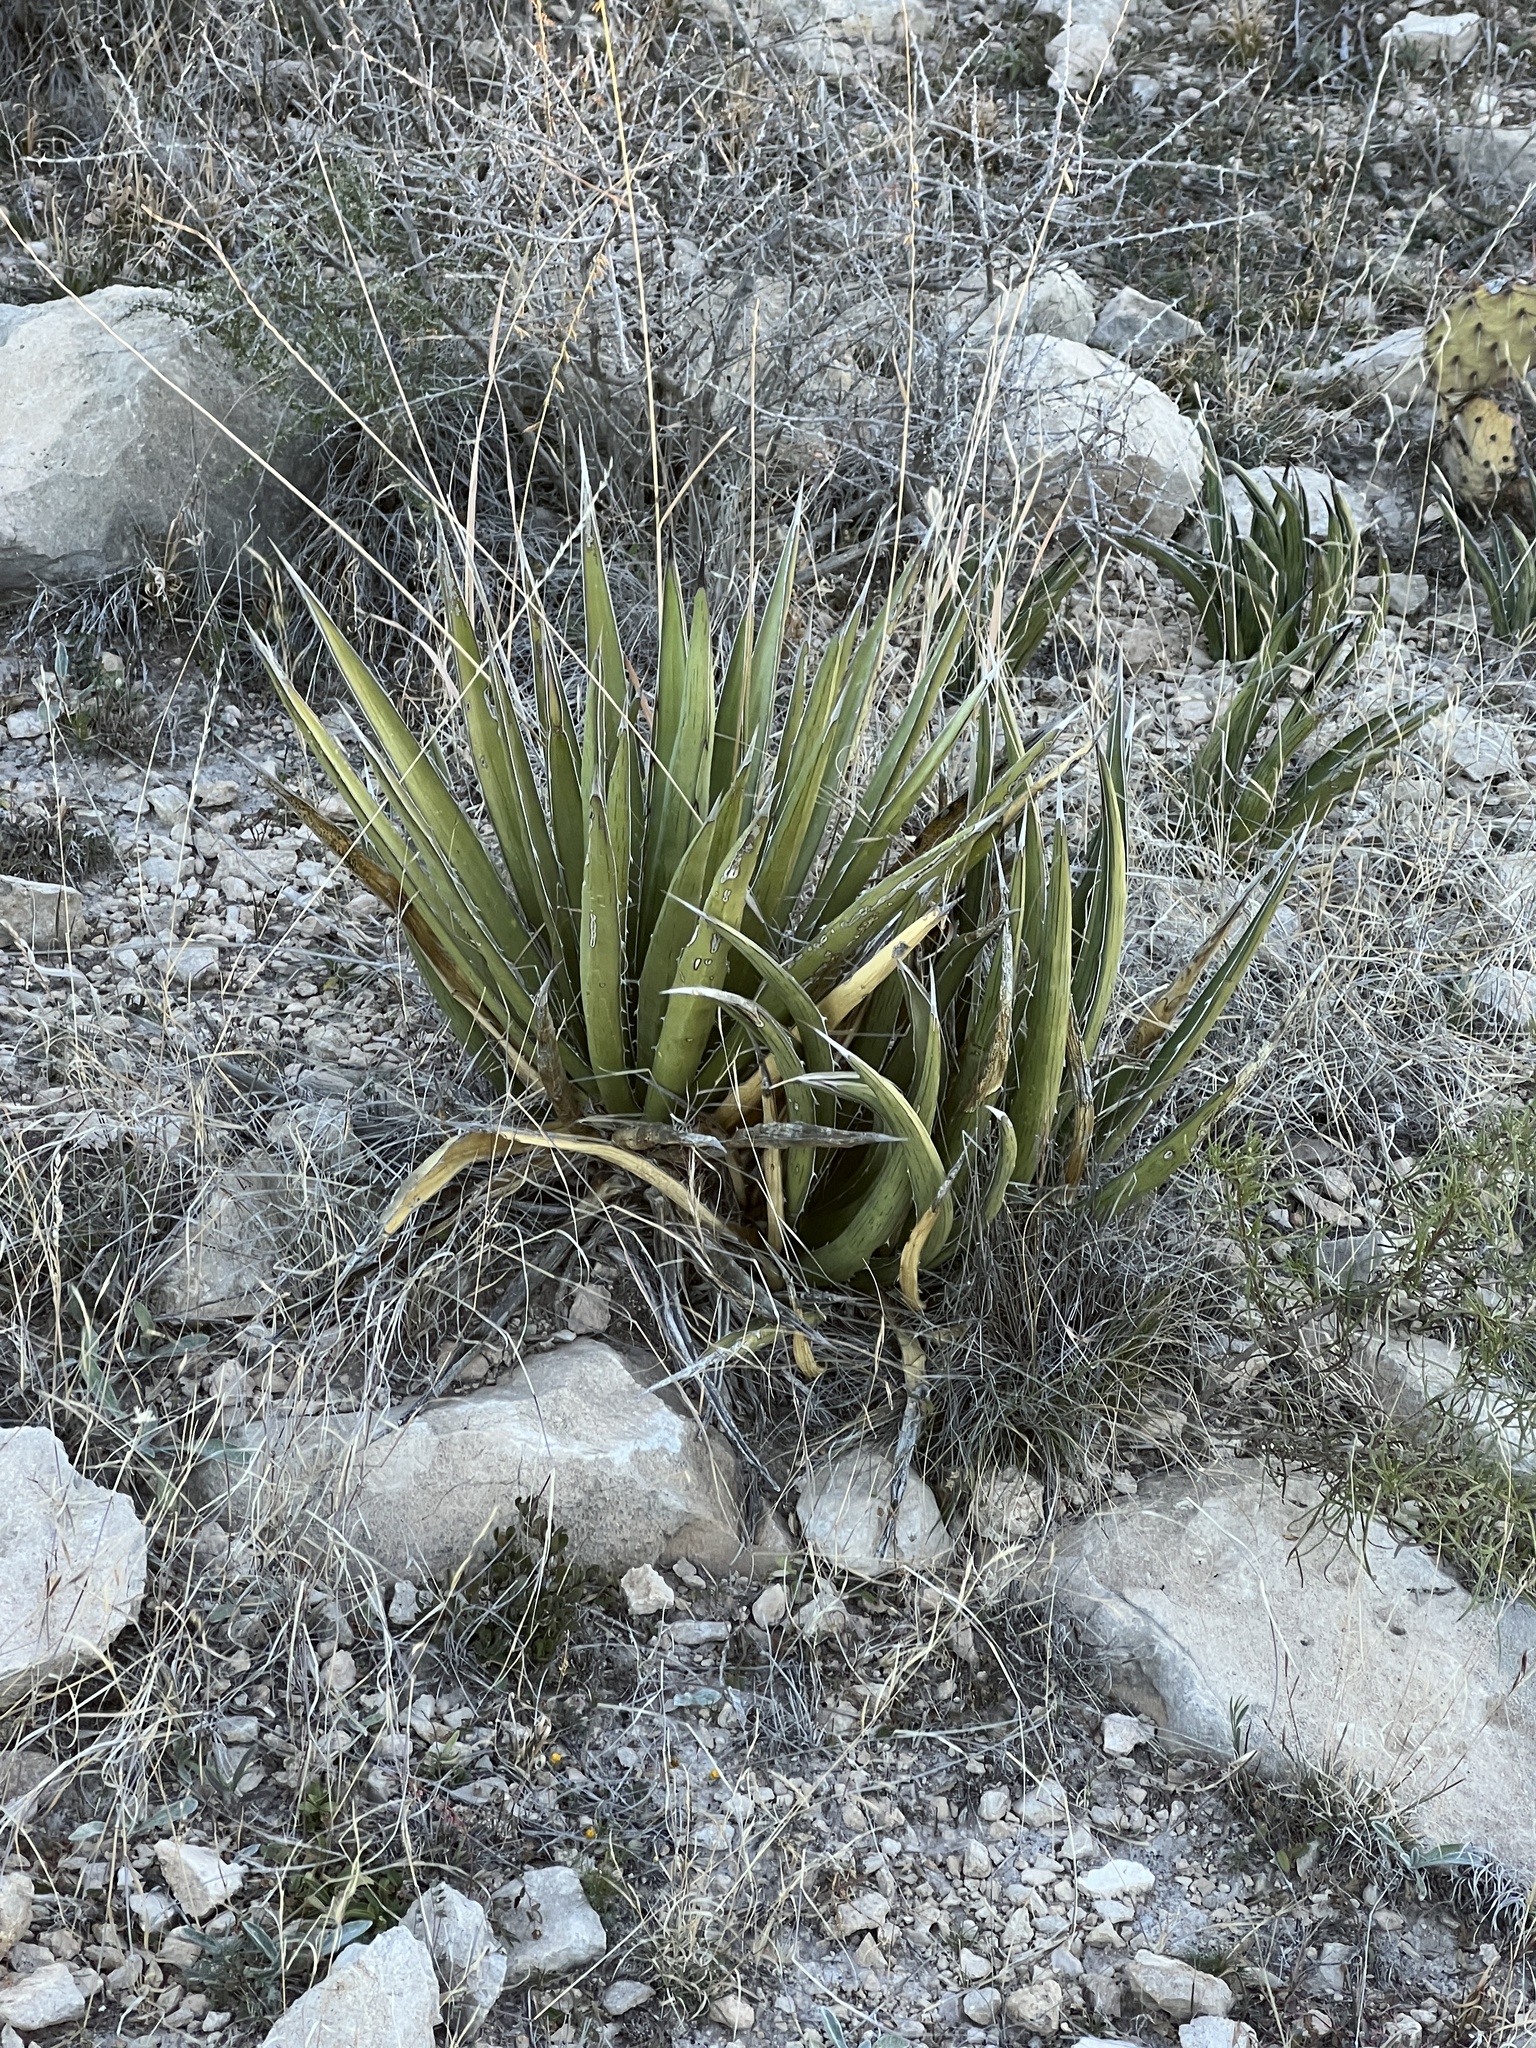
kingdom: Plantae
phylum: Tracheophyta
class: Liliopsida
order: Asparagales
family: Asparagaceae
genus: Agave
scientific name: Agave lechuguilla
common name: Lecheguilla agave
